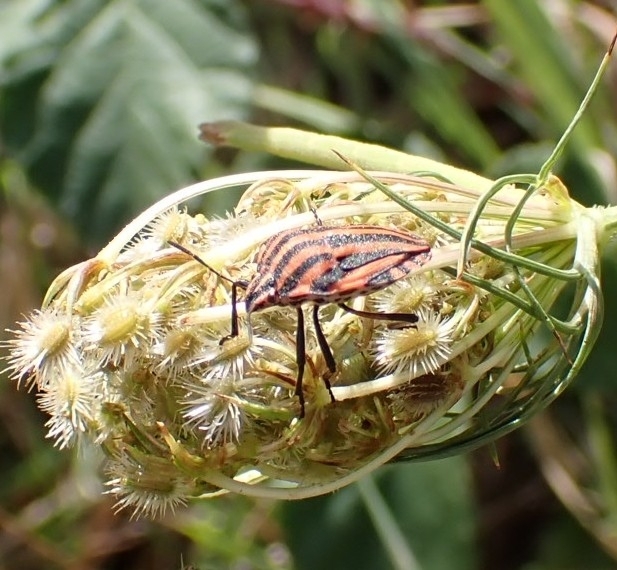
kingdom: Animalia
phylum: Arthropoda
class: Insecta
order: Hemiptera
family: Pentatomidae
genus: Graphosoma
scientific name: Graphosoma italicum
